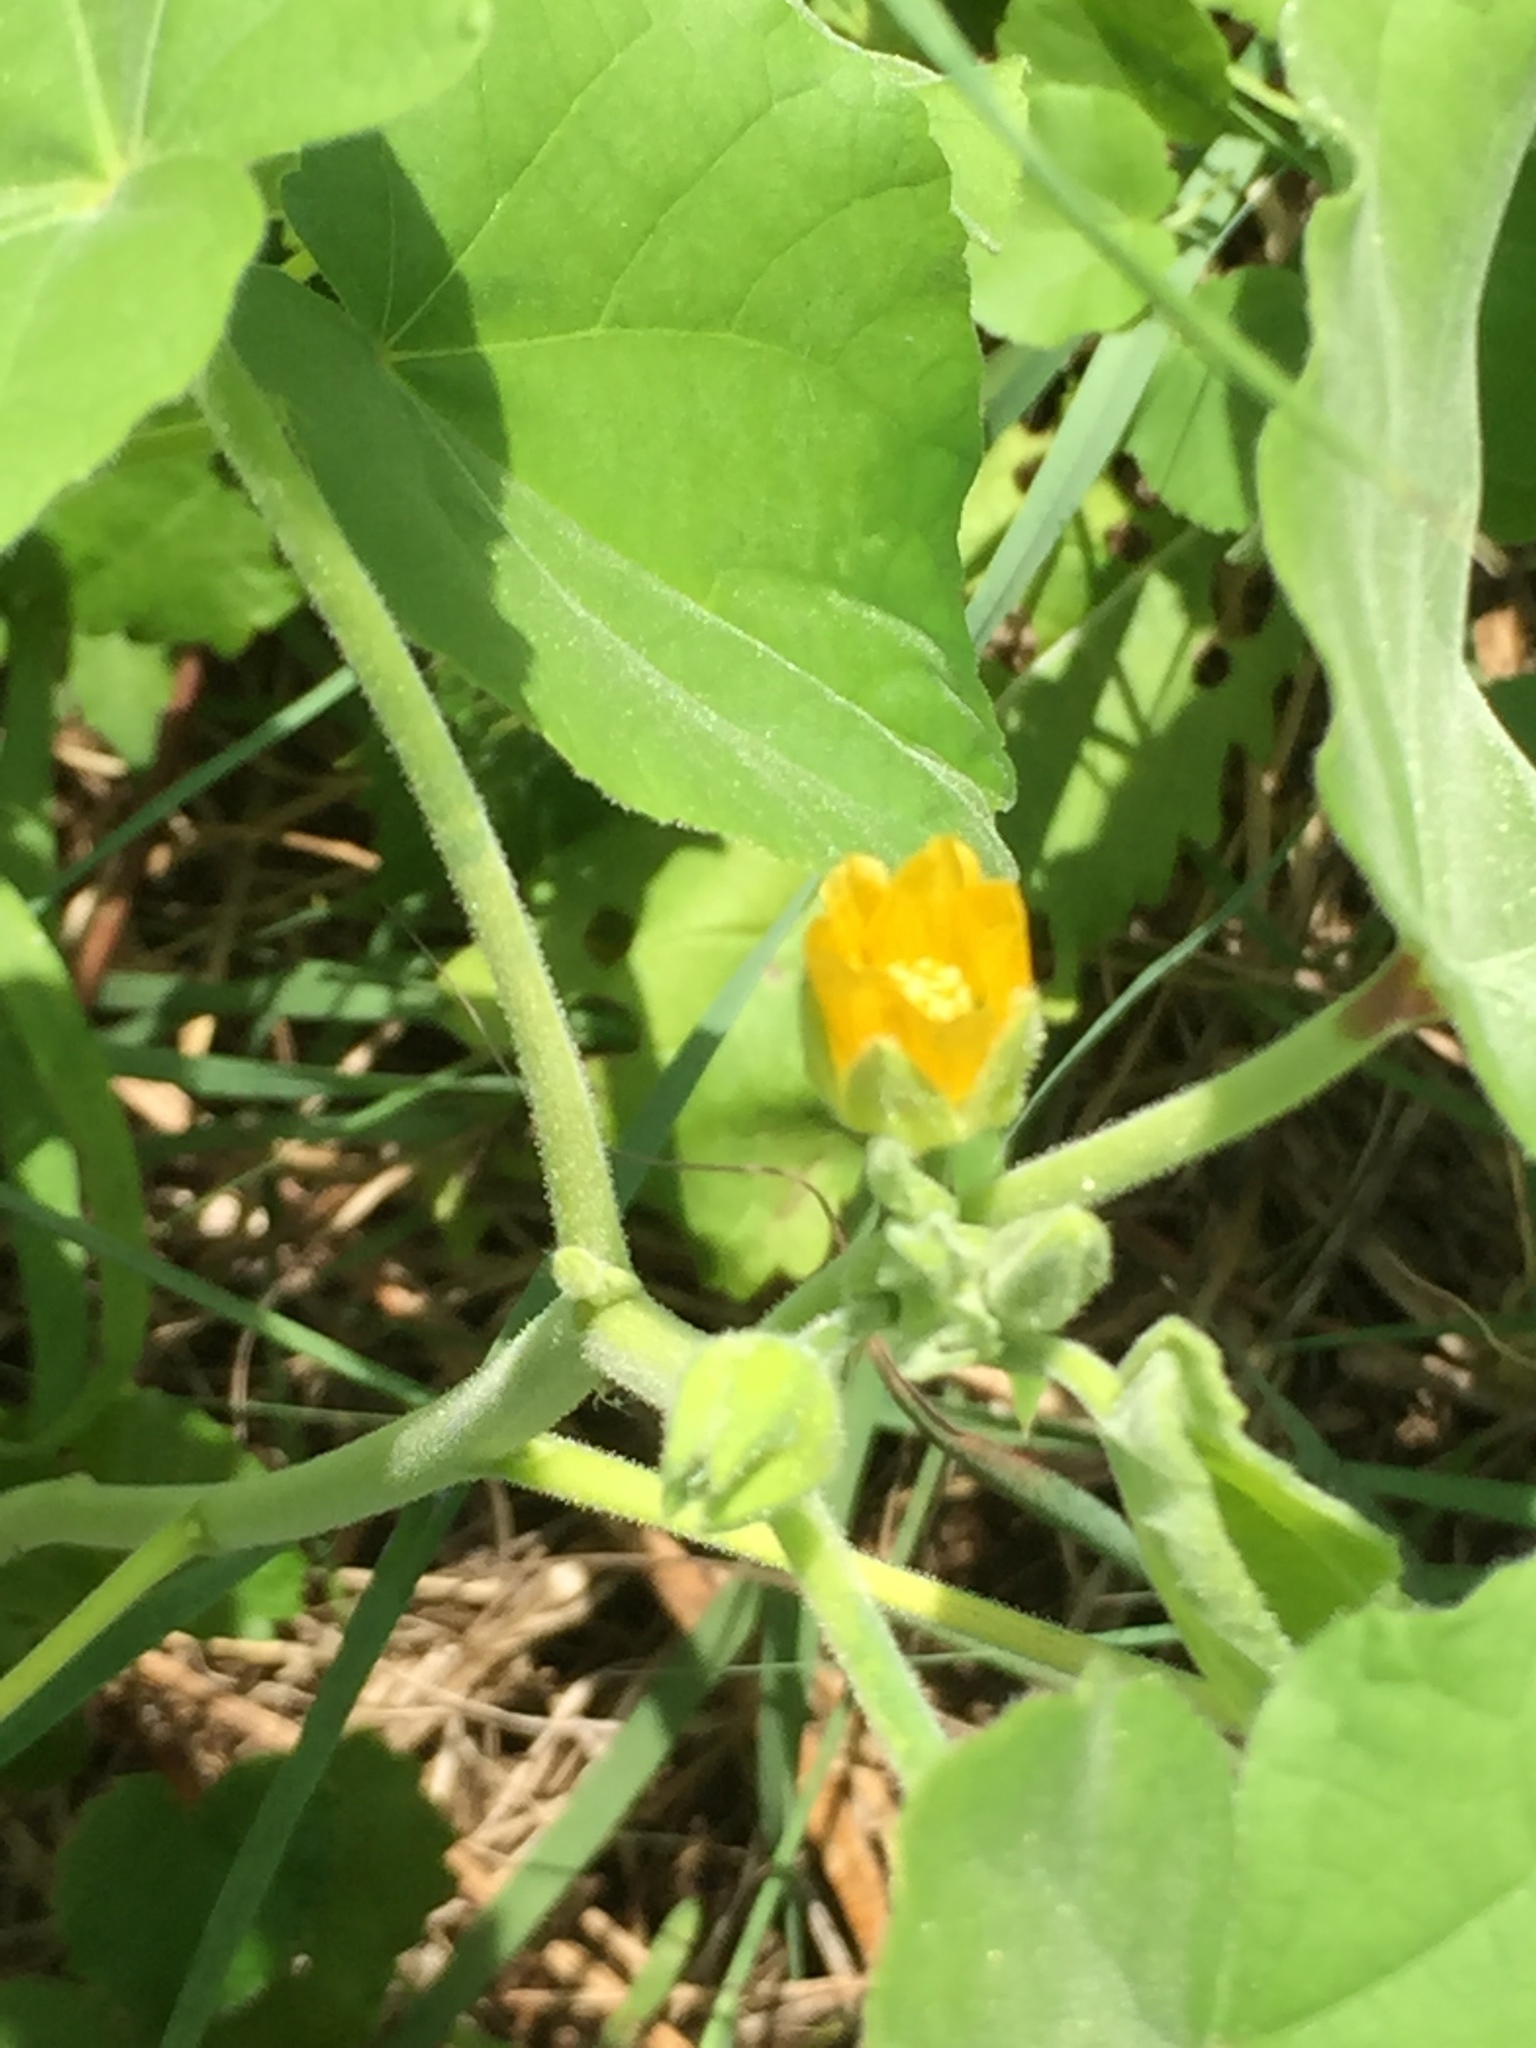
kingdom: Plantae
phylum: Tracheophyta
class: Magnoliopsida
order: Malvales
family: Malvaceae
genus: Abutilon
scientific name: Abutilon theophrasti
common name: Velvetleaf
